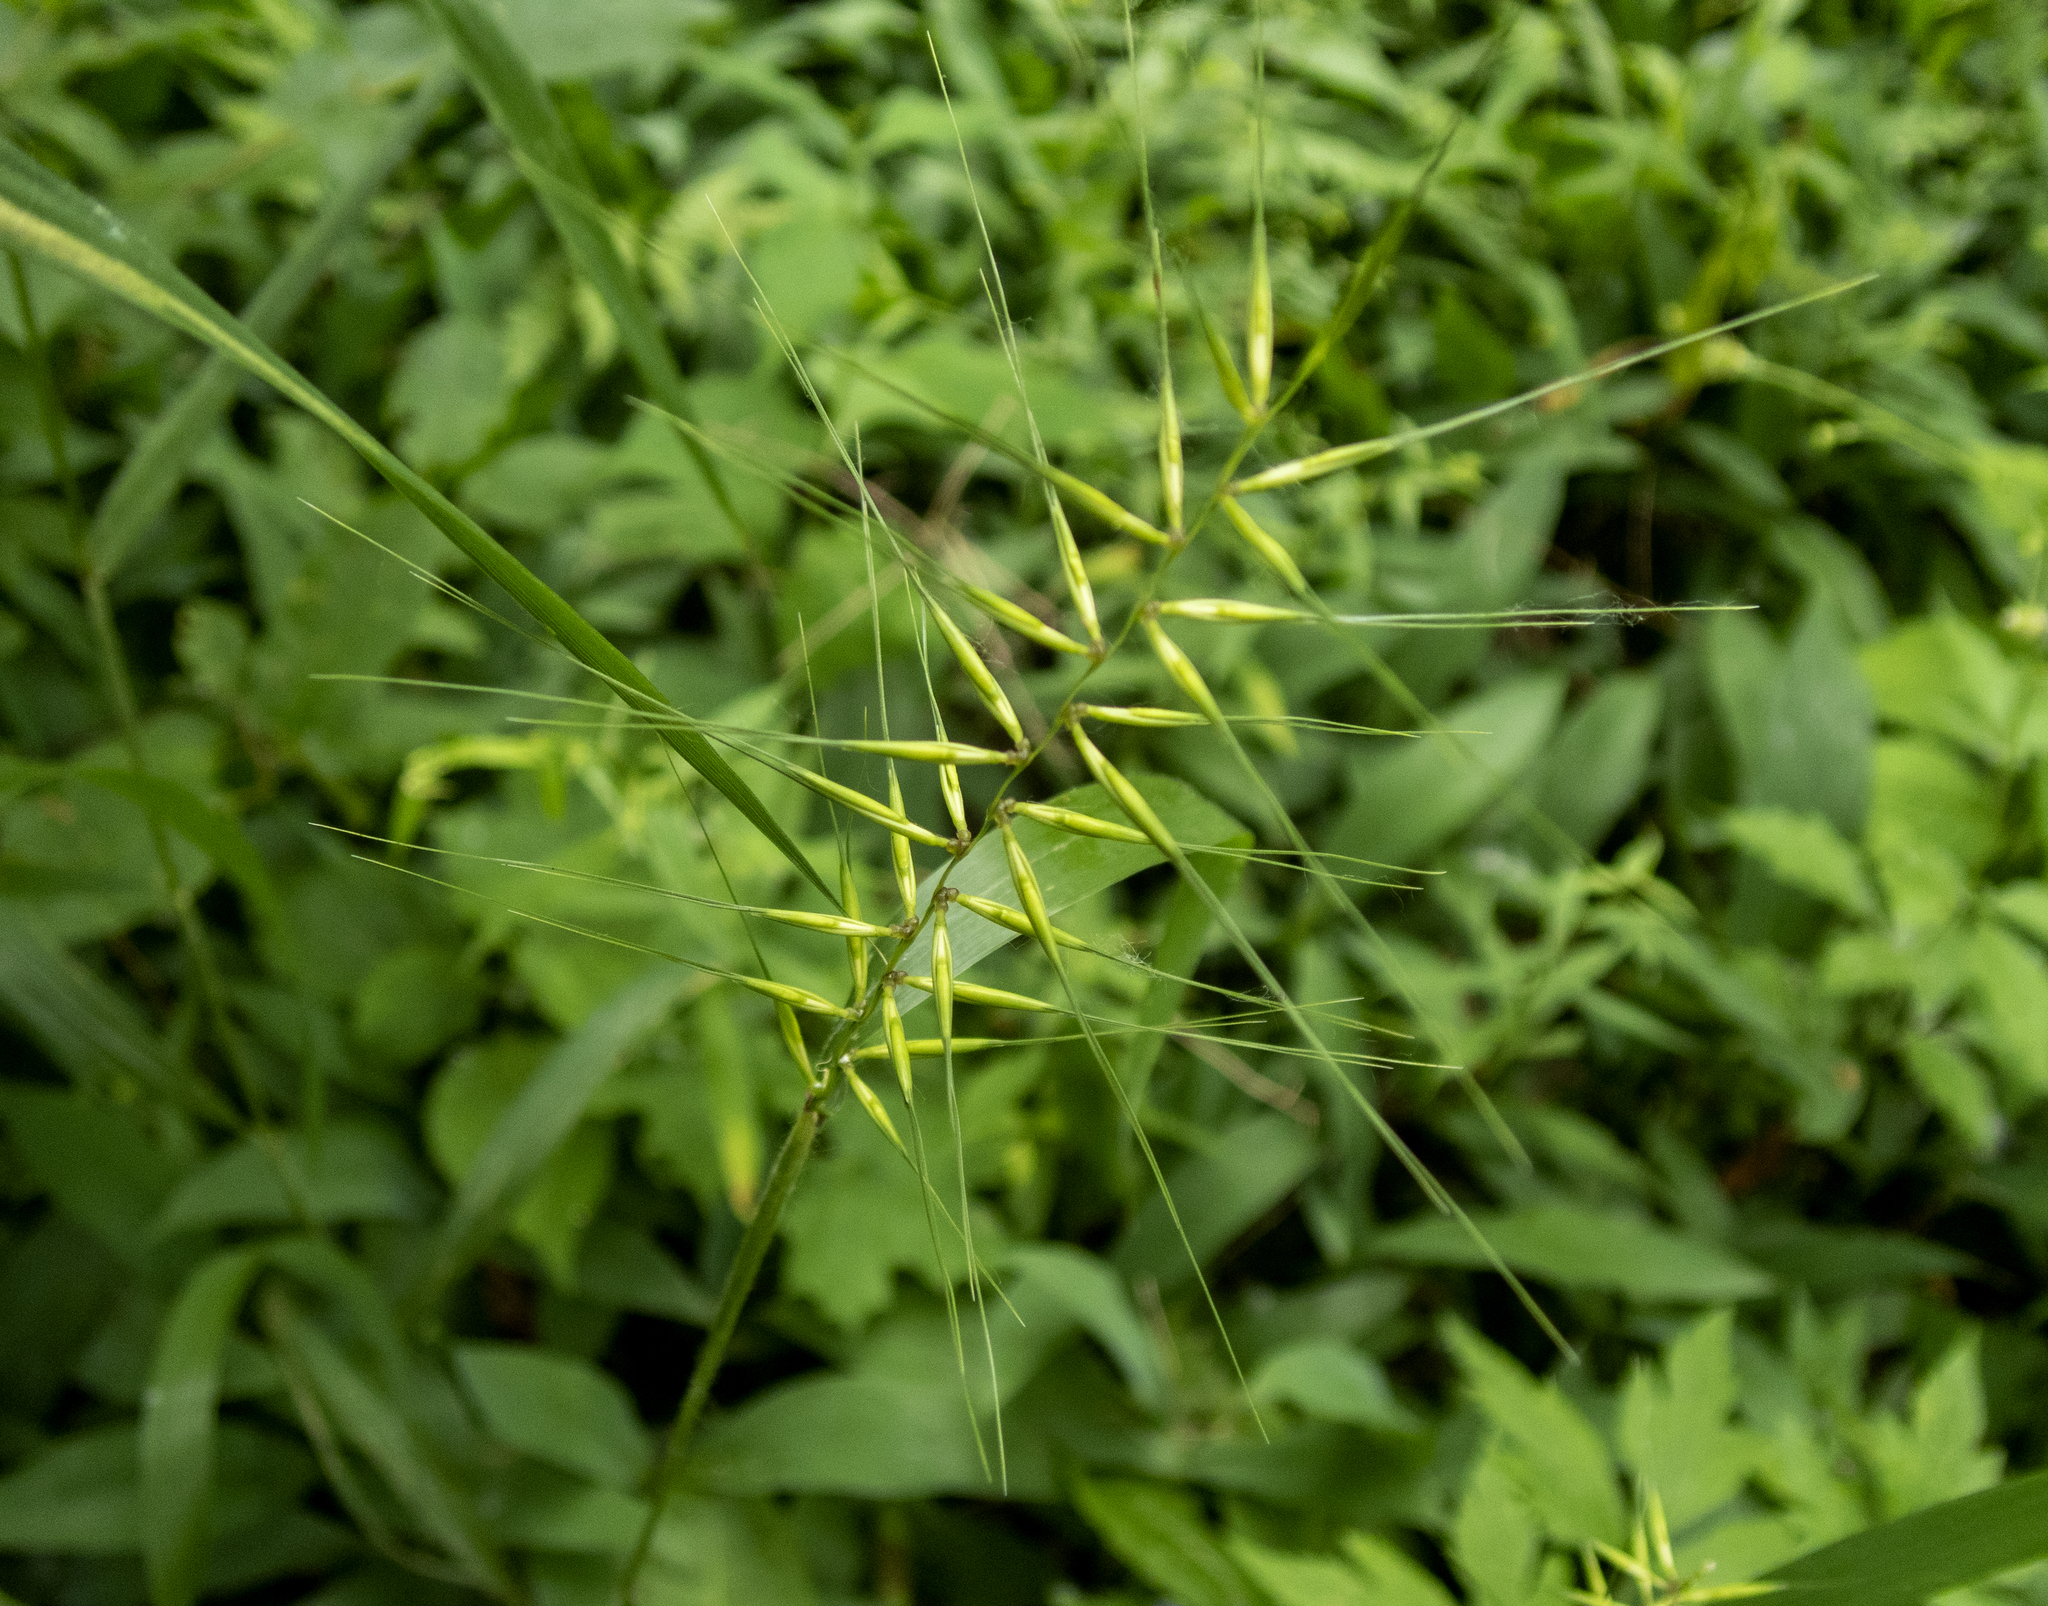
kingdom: Plantae
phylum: Tracheophyta
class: Liliopsida
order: Poales
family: Poaceae
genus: Elymus
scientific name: Elymus hystrix
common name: Bottlebrush grass
